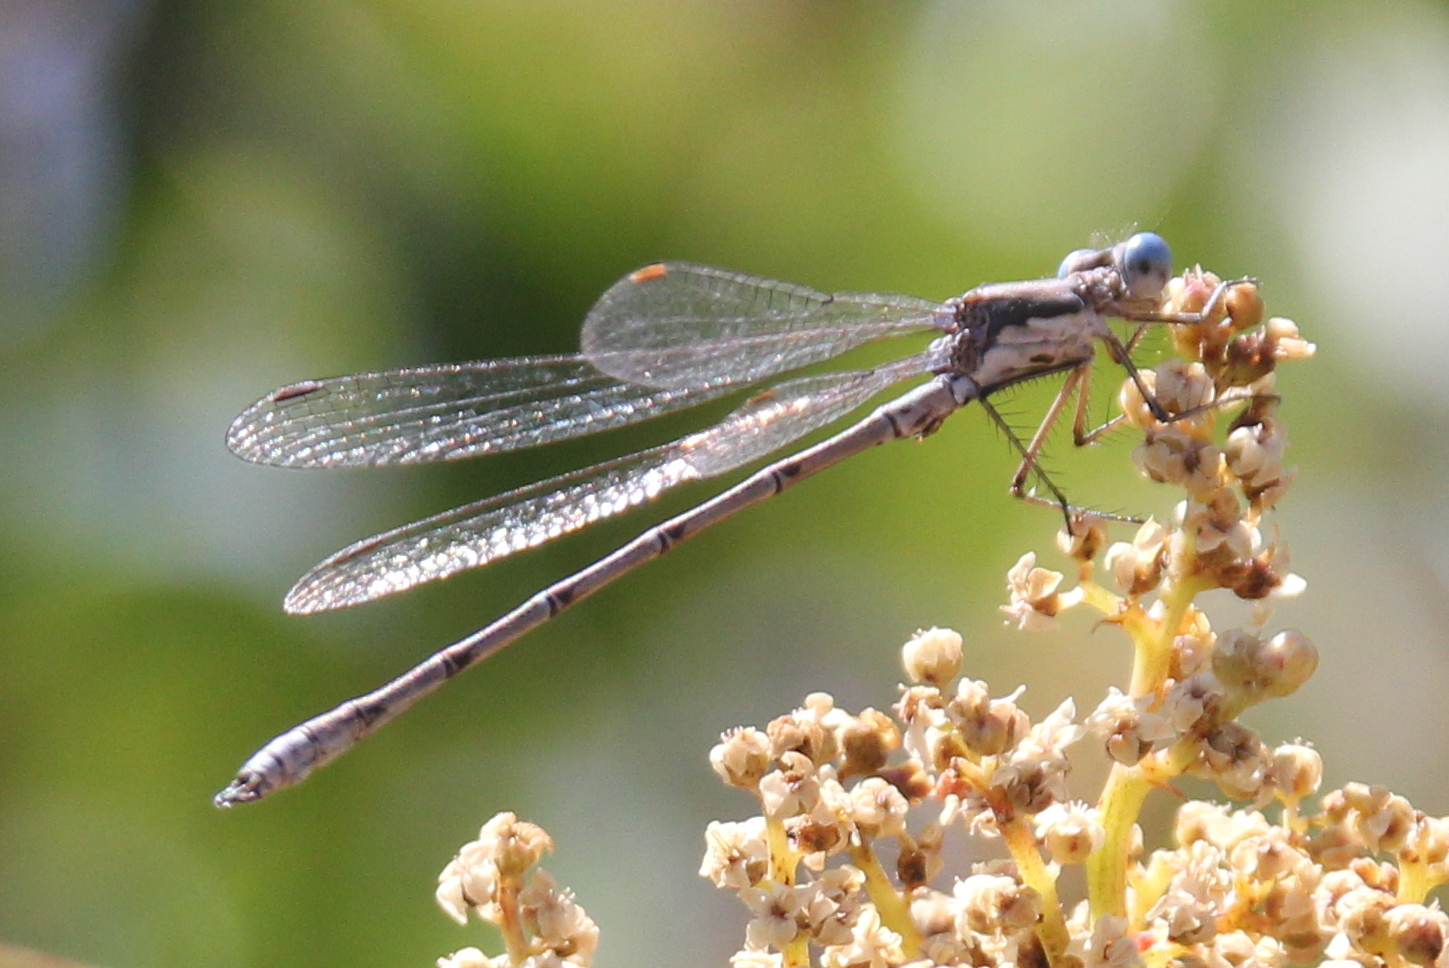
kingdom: Animalia
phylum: Arthropoda
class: Insecta
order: Odonata
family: Lestidae
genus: Lestes
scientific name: Lestes congener
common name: Spotted spreadwing
